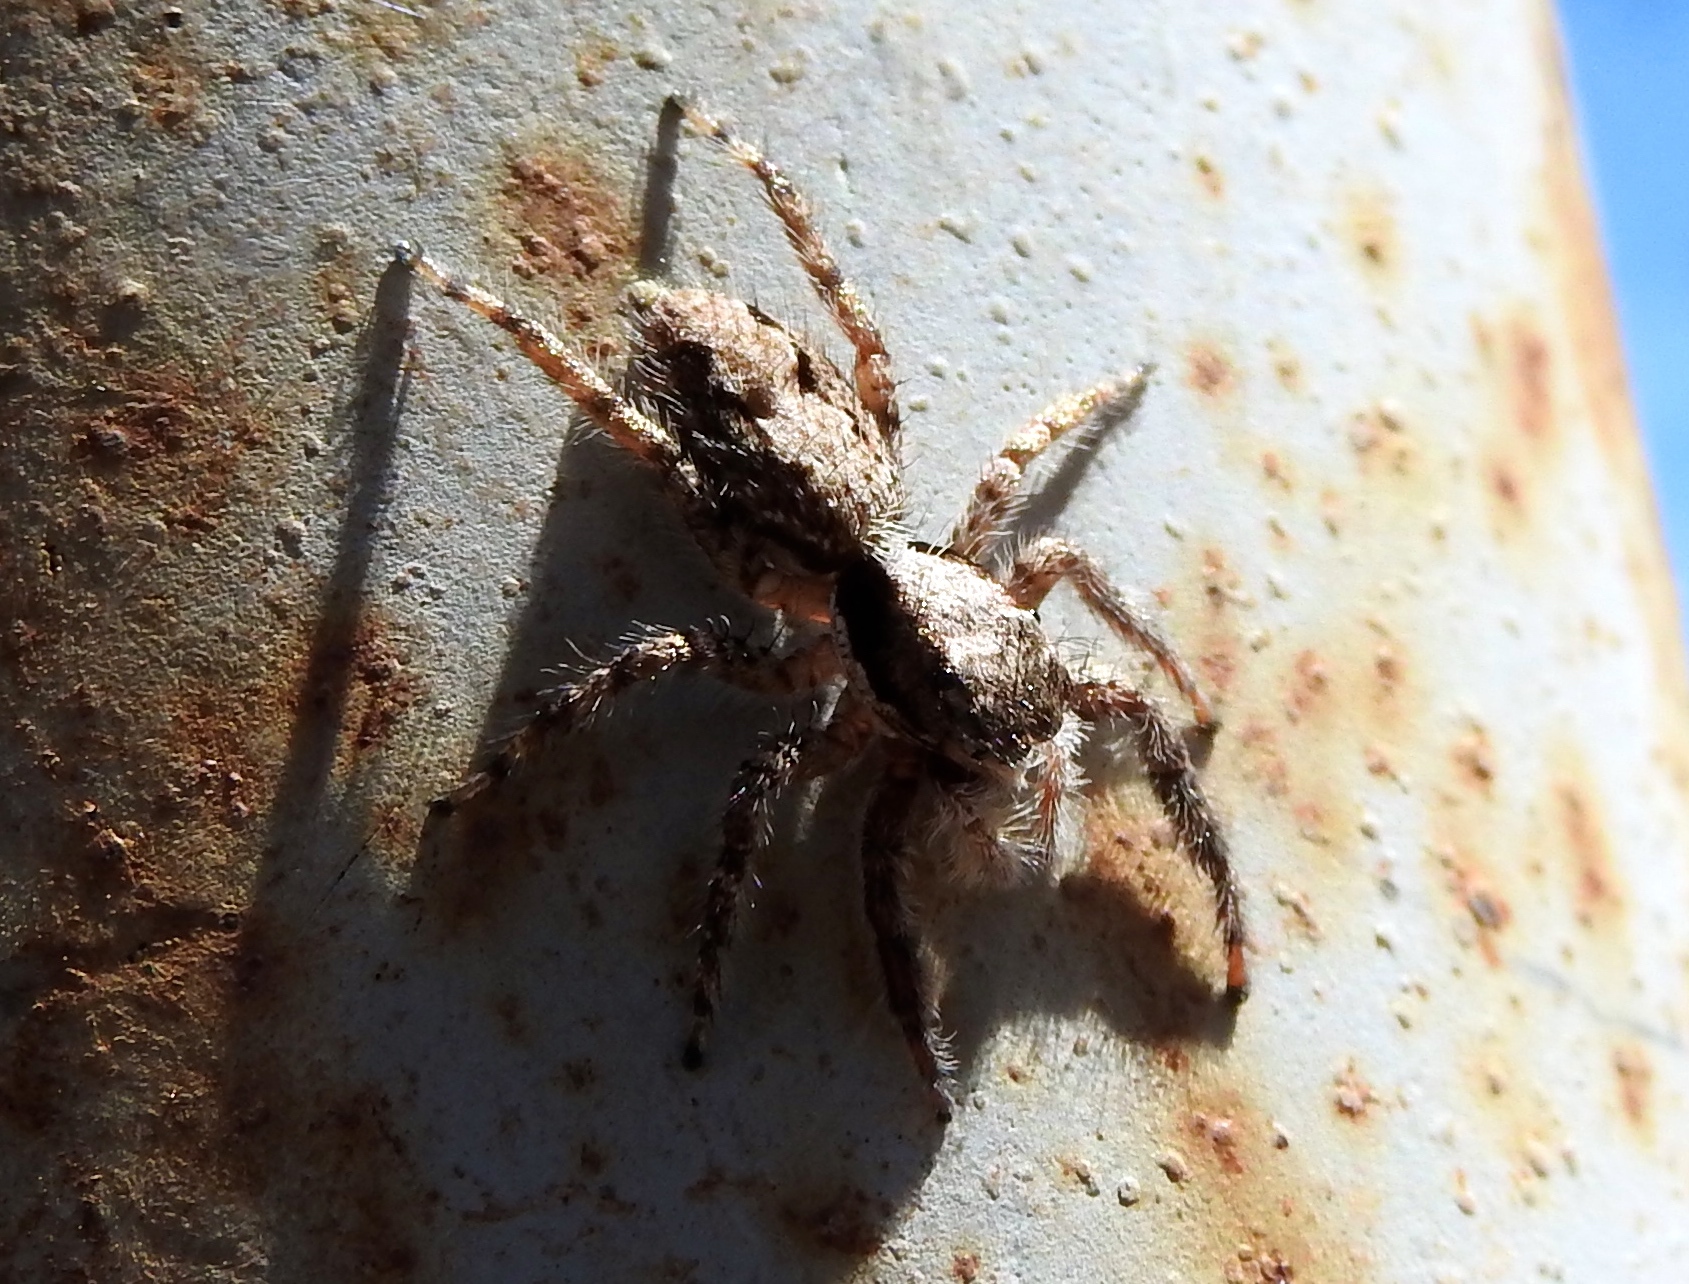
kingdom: Animalia
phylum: Arthropoda
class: Arachnida
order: Araneae
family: Salticidae
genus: Balmaceda
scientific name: Balmaceda
